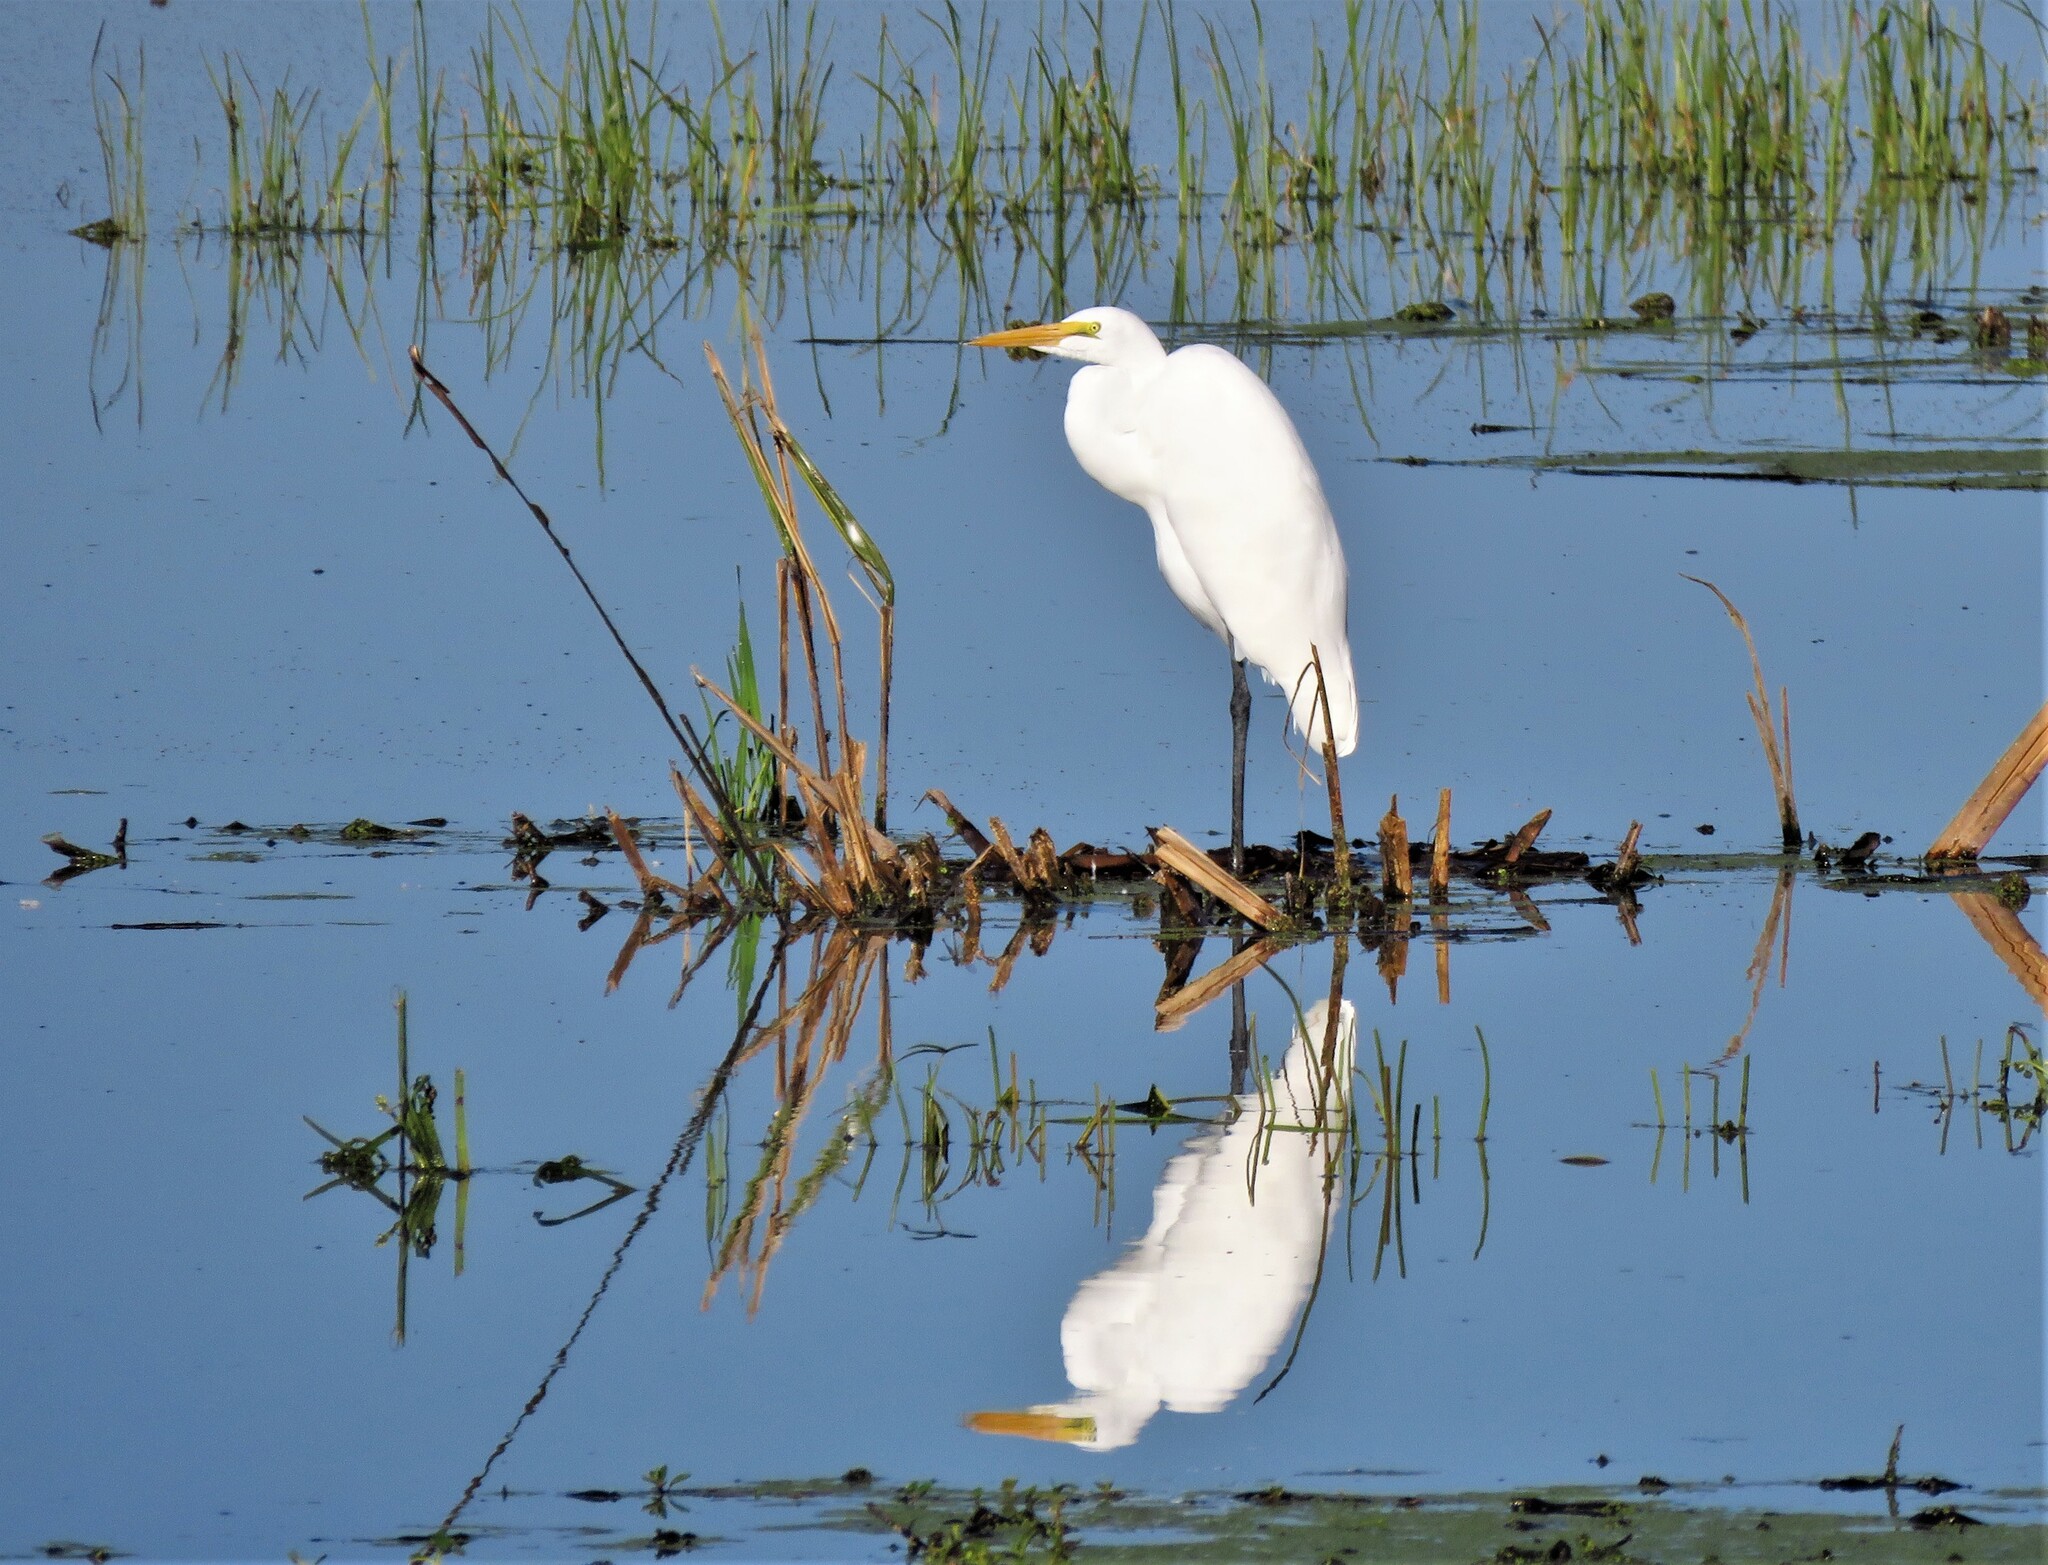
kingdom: Animalia
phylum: Chordata
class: Aves
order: Pelecaniformes
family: Ardeidae
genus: Ardea
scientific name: Ardea alba
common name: Great egret
